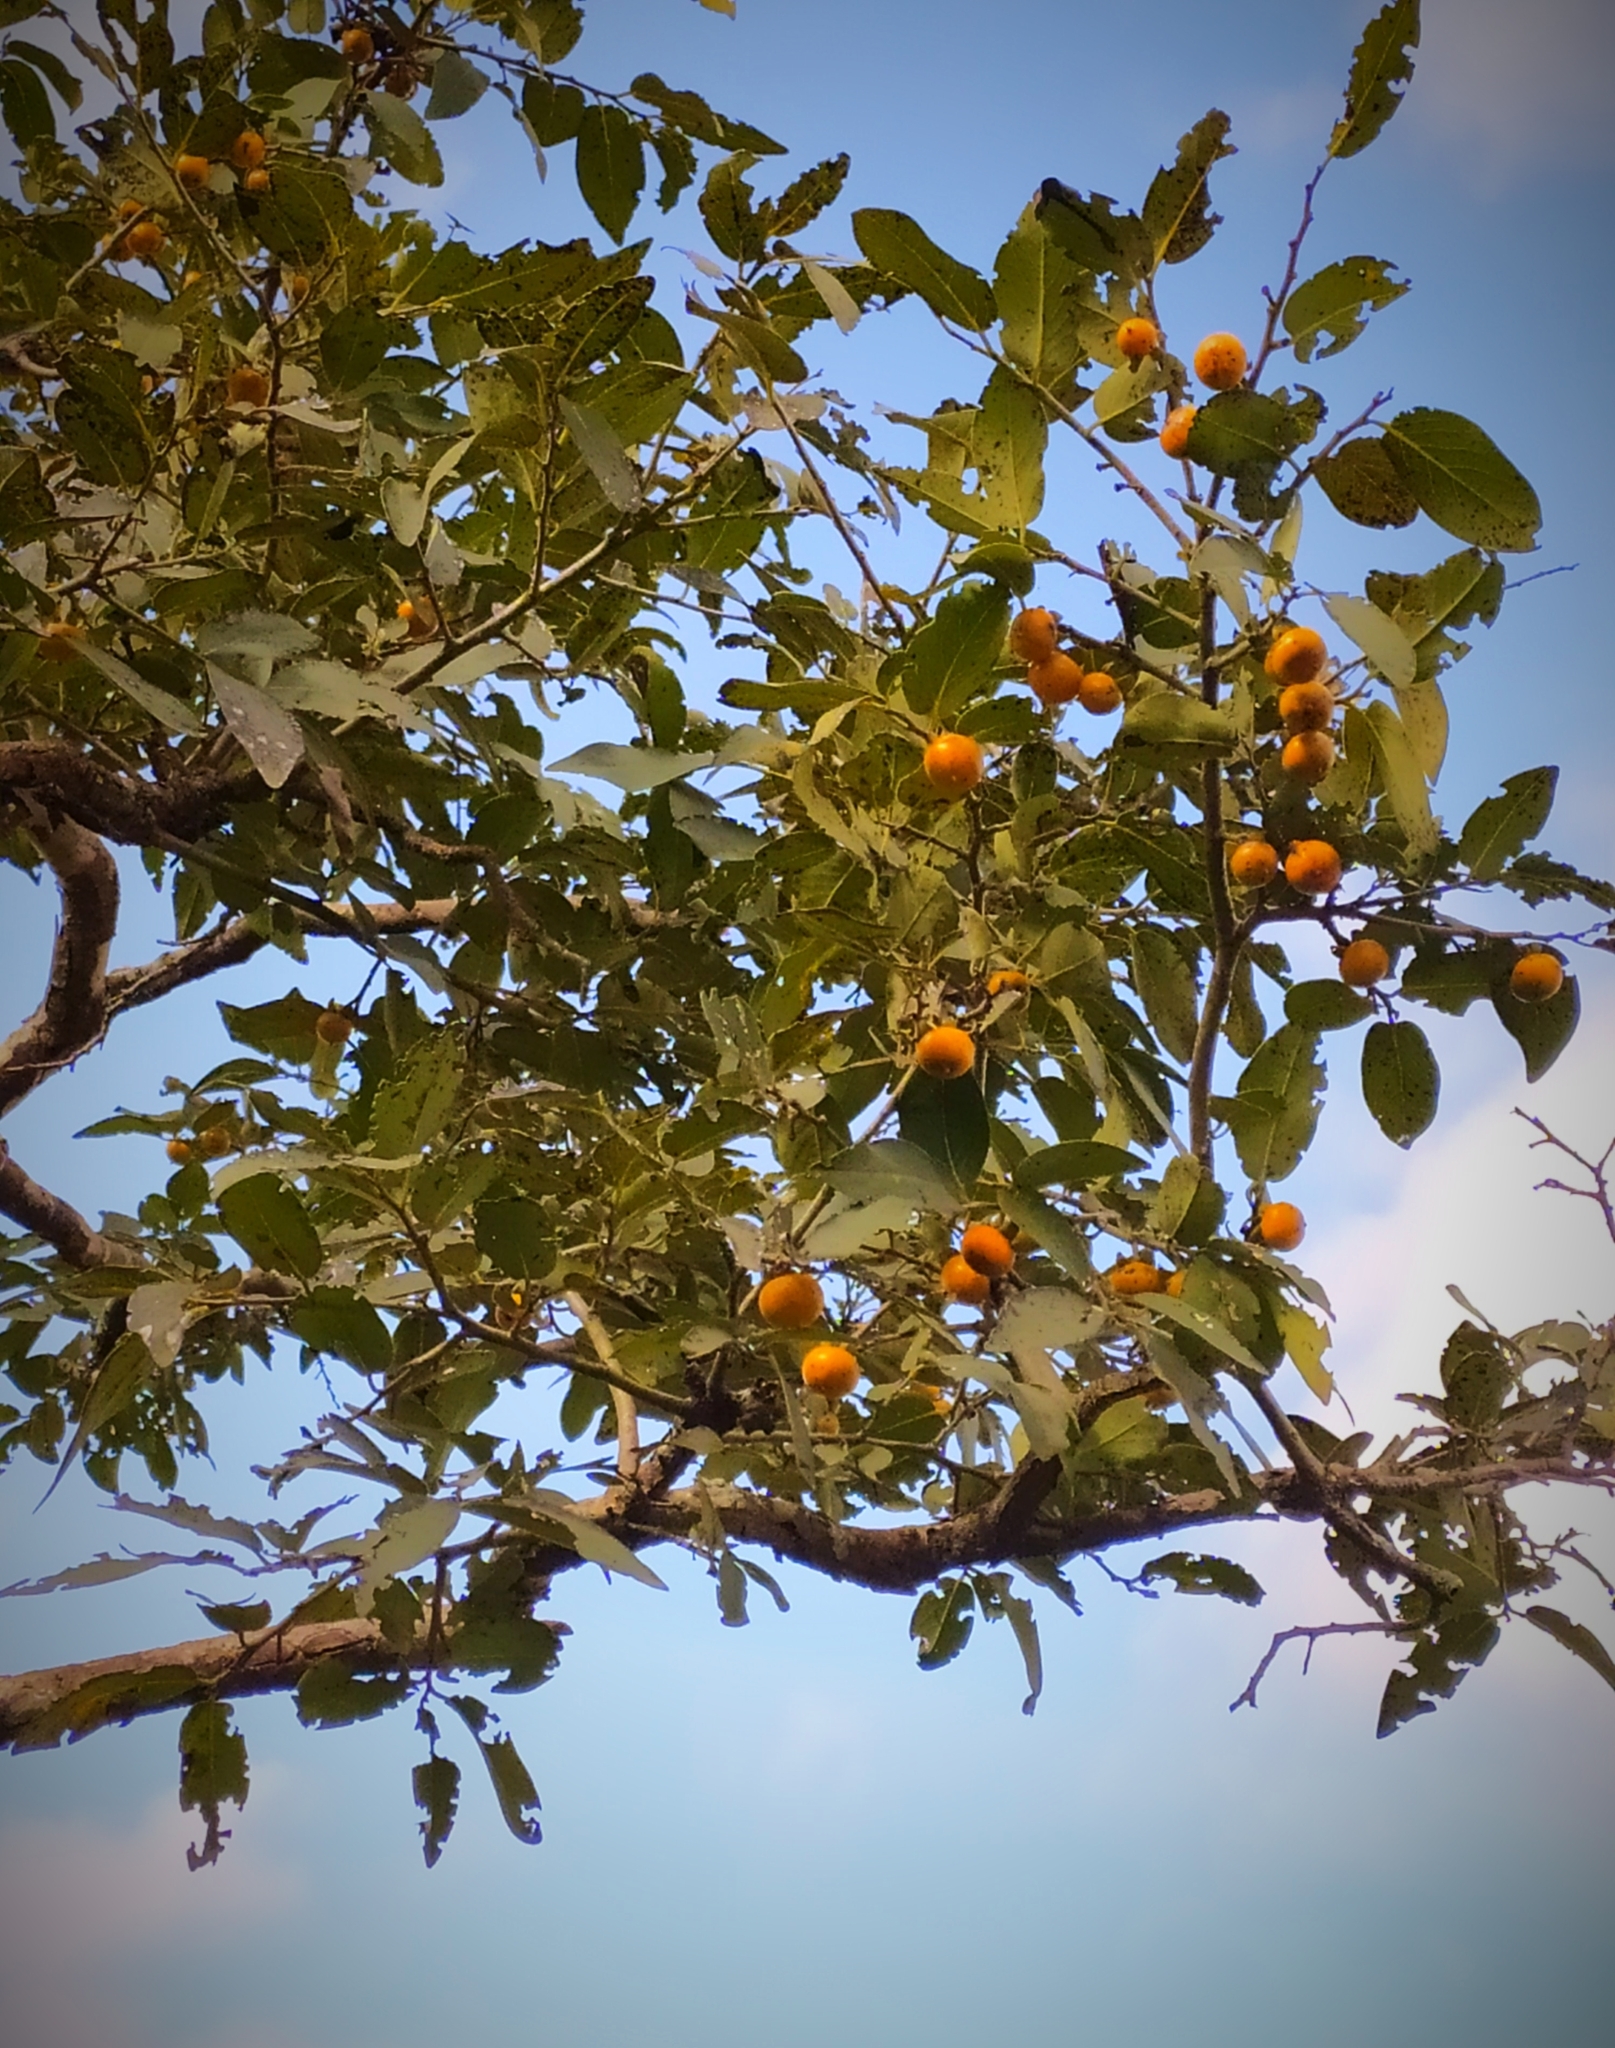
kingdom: Plantae
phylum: Tracheophyta
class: Magnoliopsida
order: Ericales
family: Ebenaceae
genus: Diospyros
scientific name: Diospyros montana
